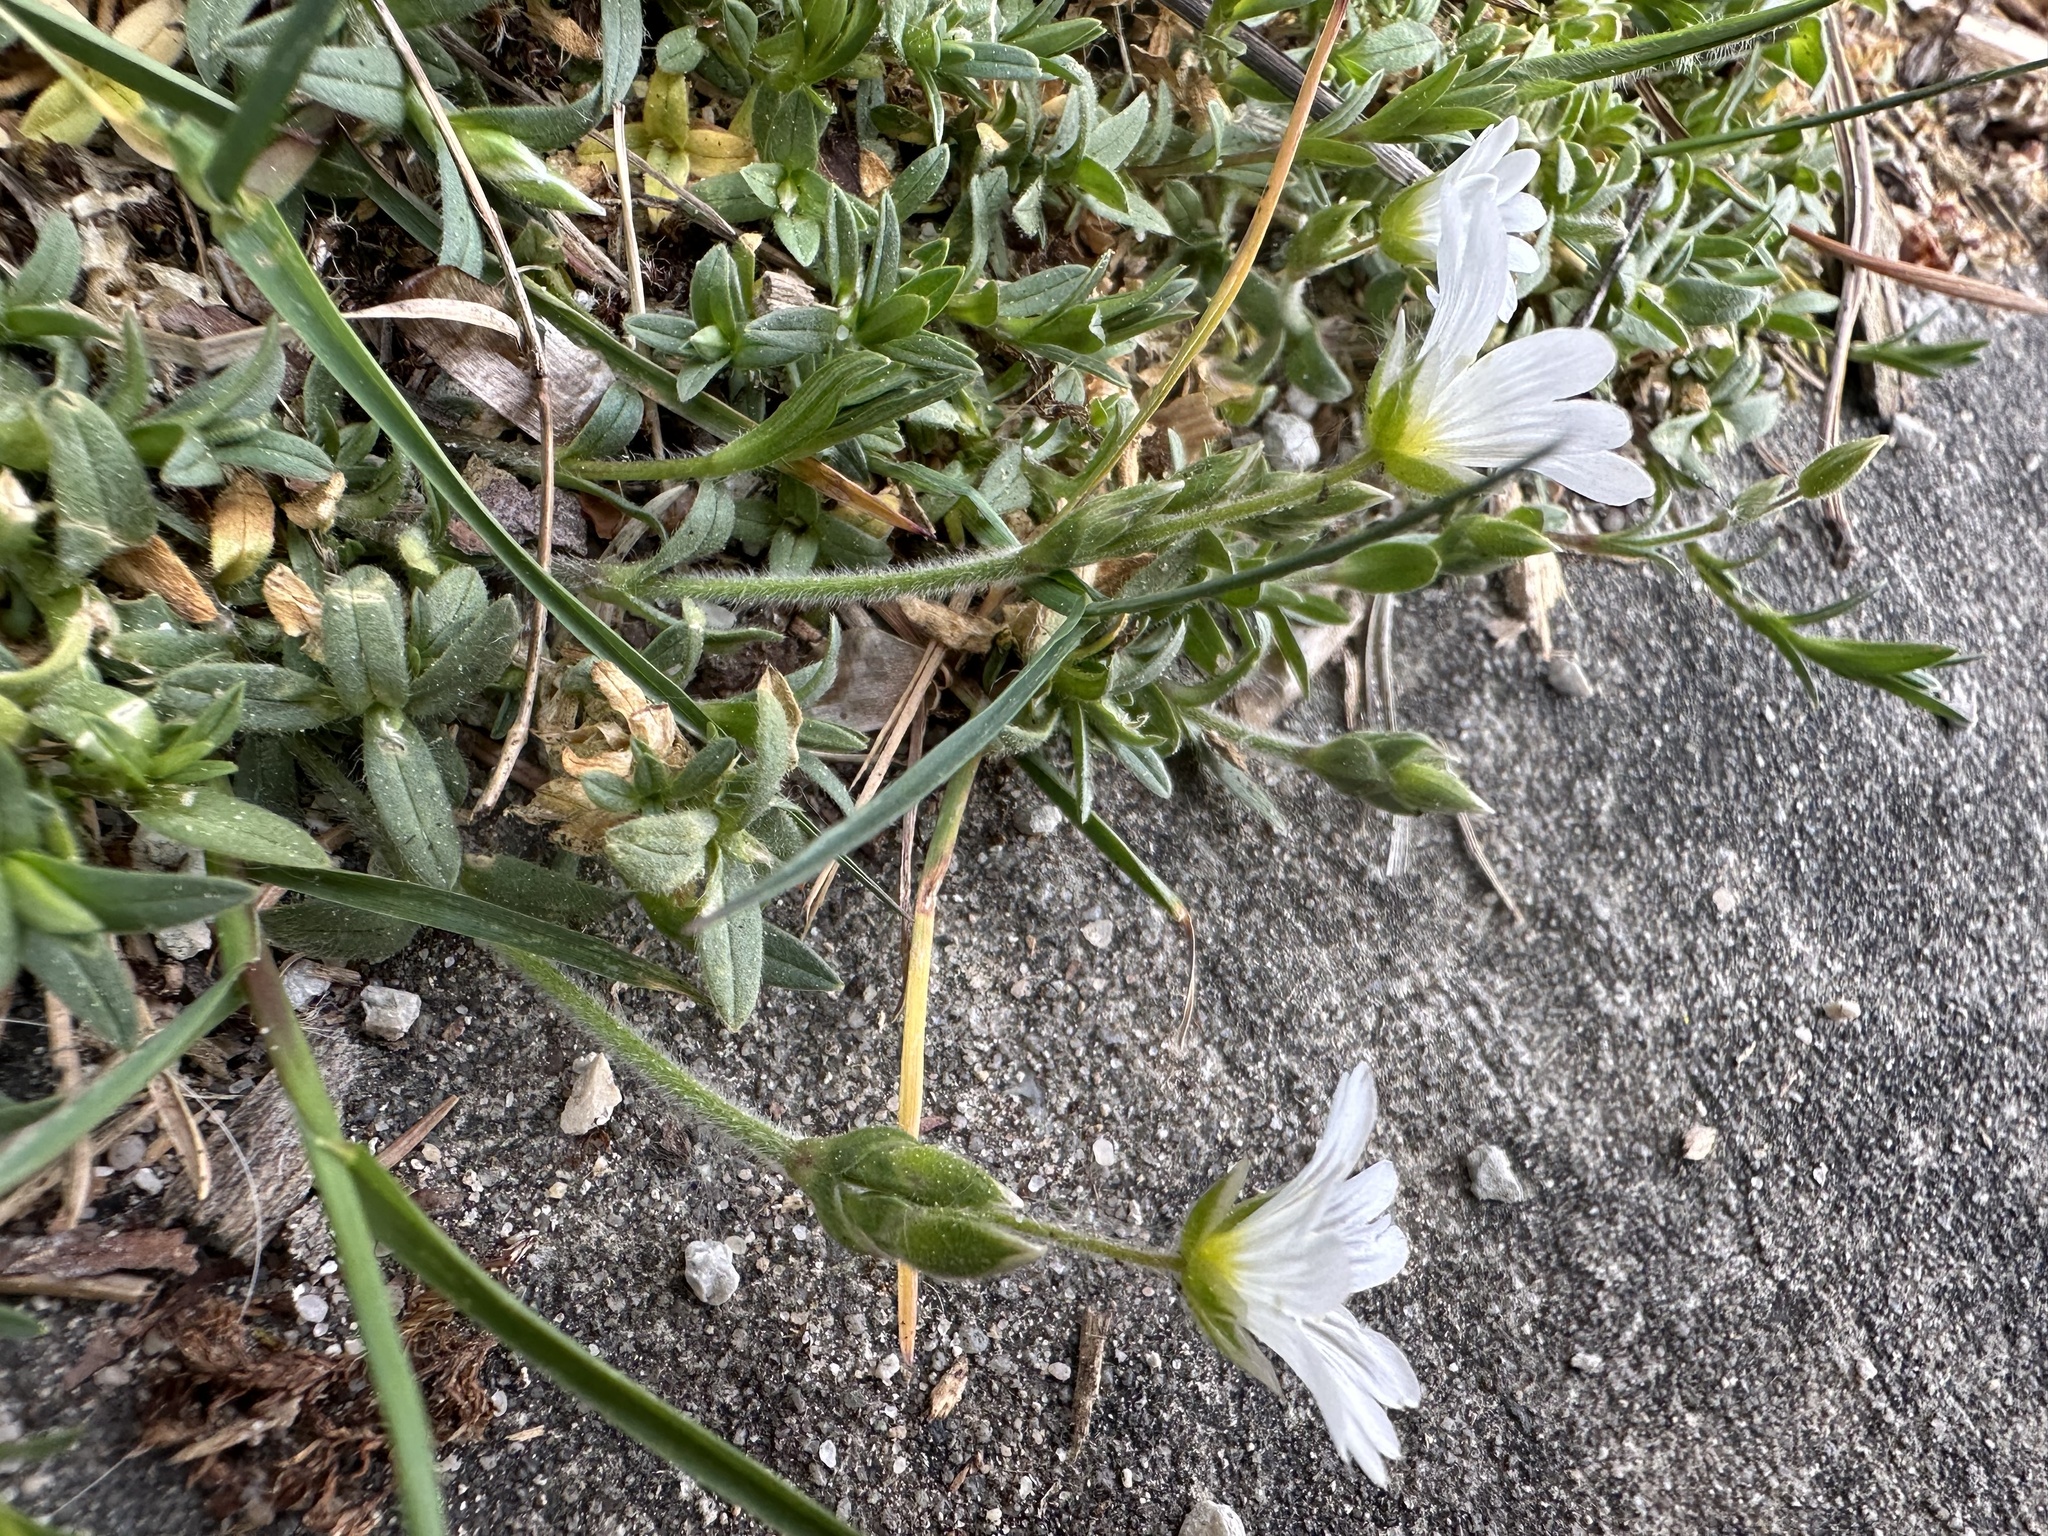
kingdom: Plantae
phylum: Tracheophyta
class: Magnoliopsida
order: Caryophyllales
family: Caryophyllaceae
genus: Cerastium
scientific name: Cerastium arvense
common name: Field mouse-ear
